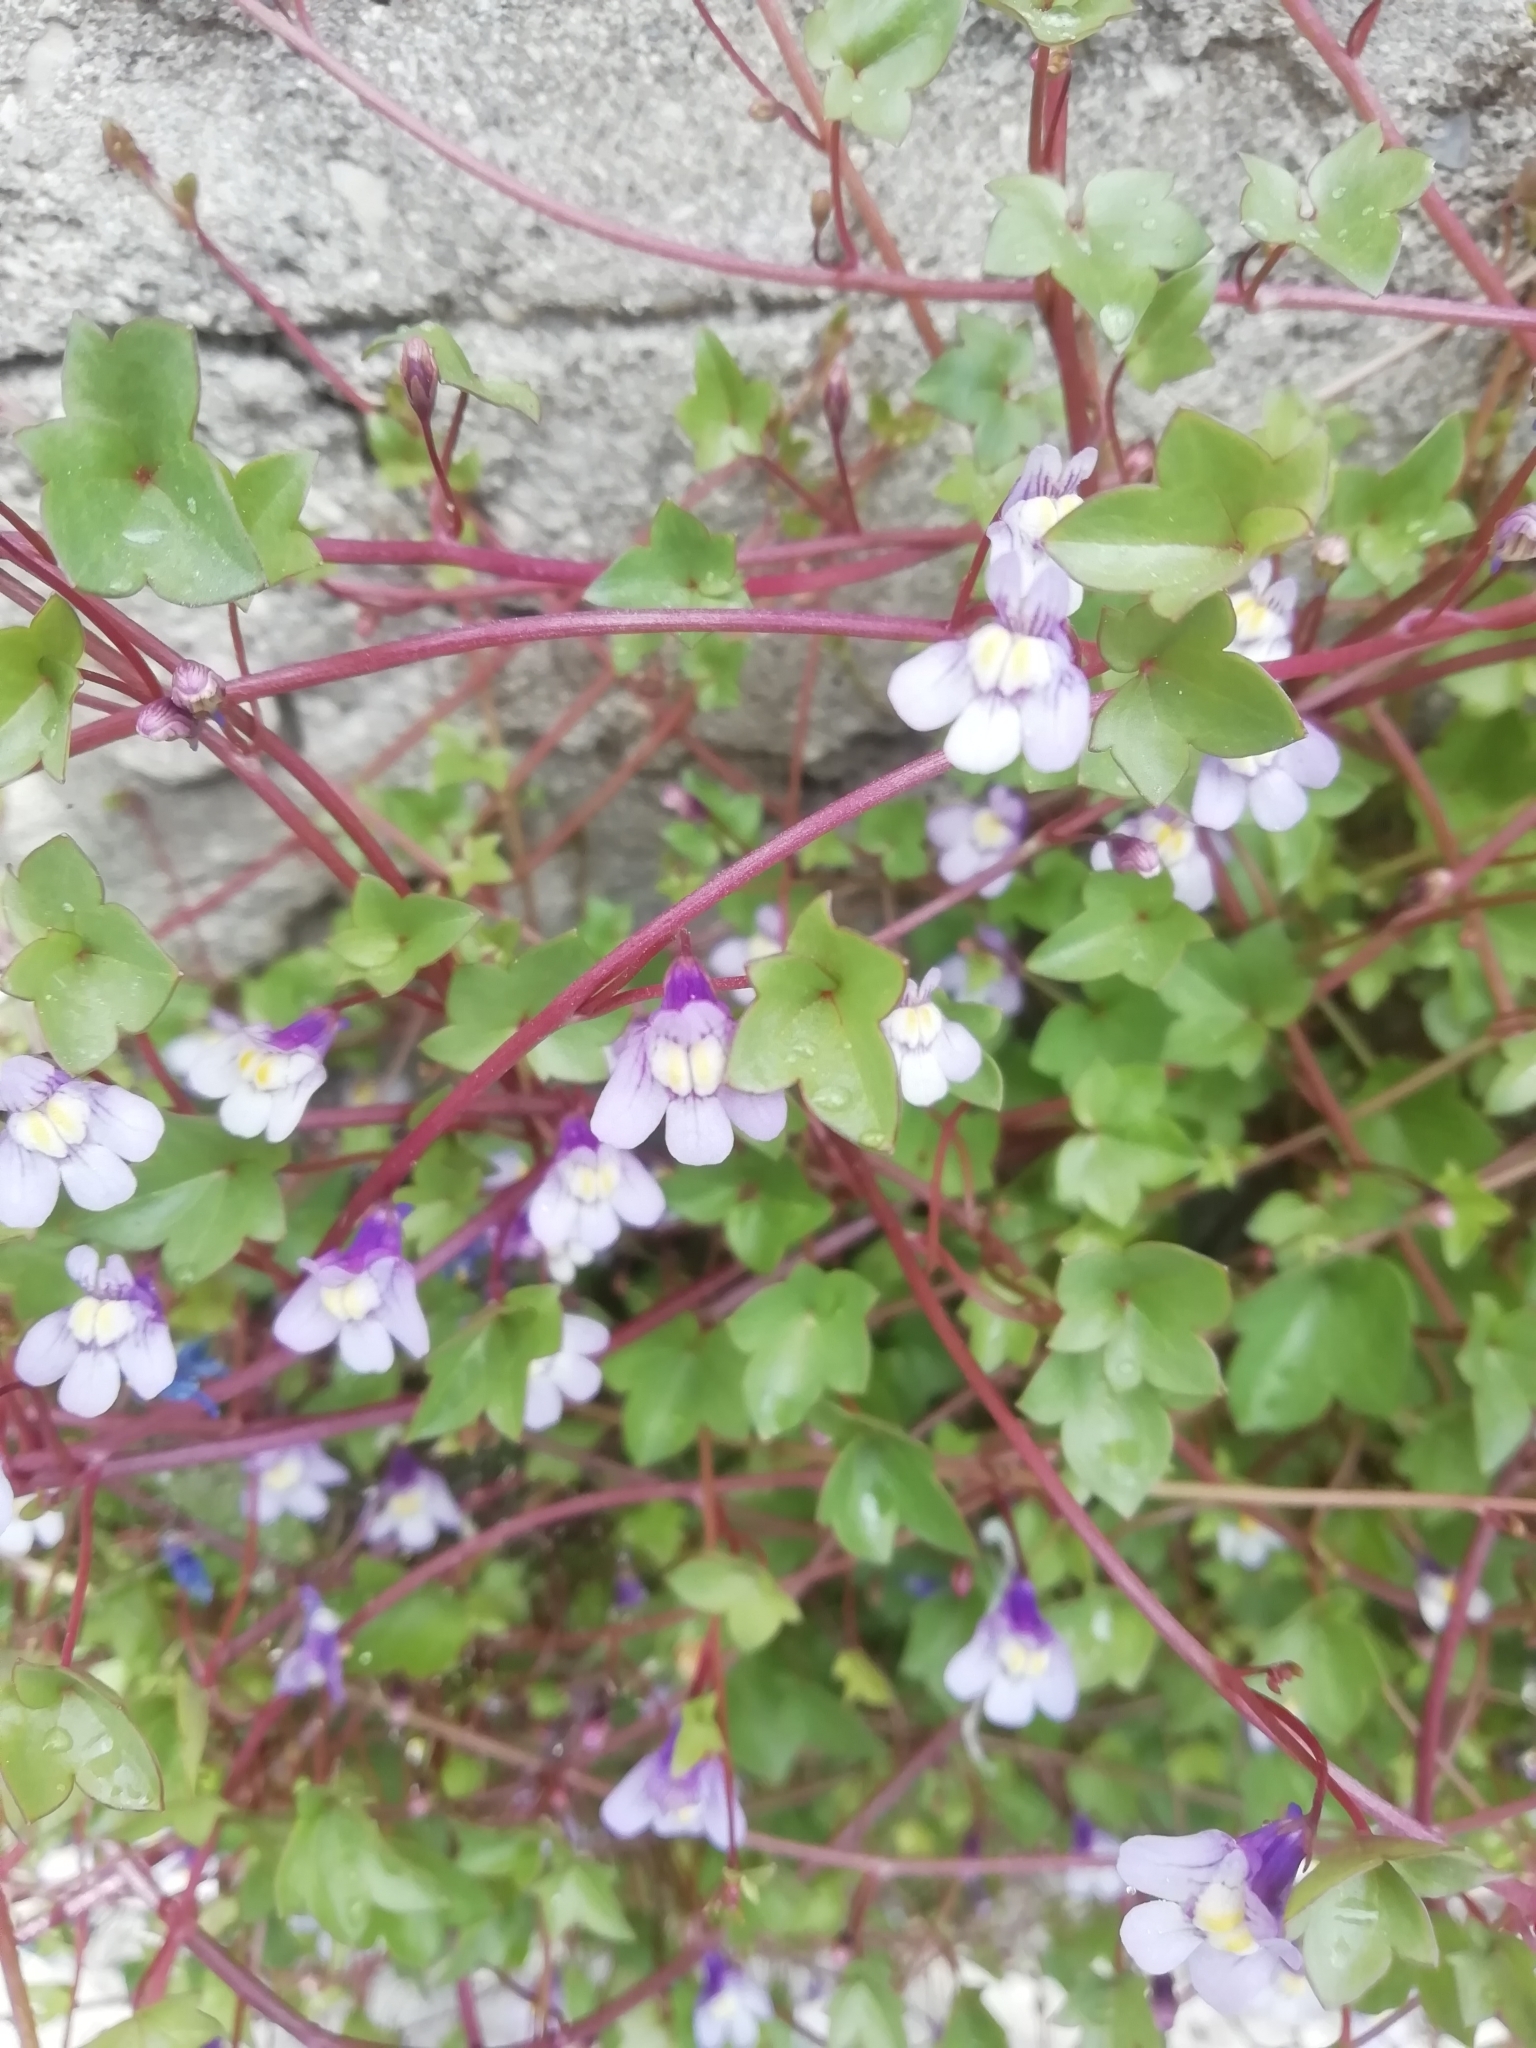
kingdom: Plantae
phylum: Tracheophyta
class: Magnoliopsida
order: Lamiales
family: Plantaginaceae
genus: Cymbalaria
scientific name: Cymbalaria muralis
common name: Ivy-leaved toadflax
